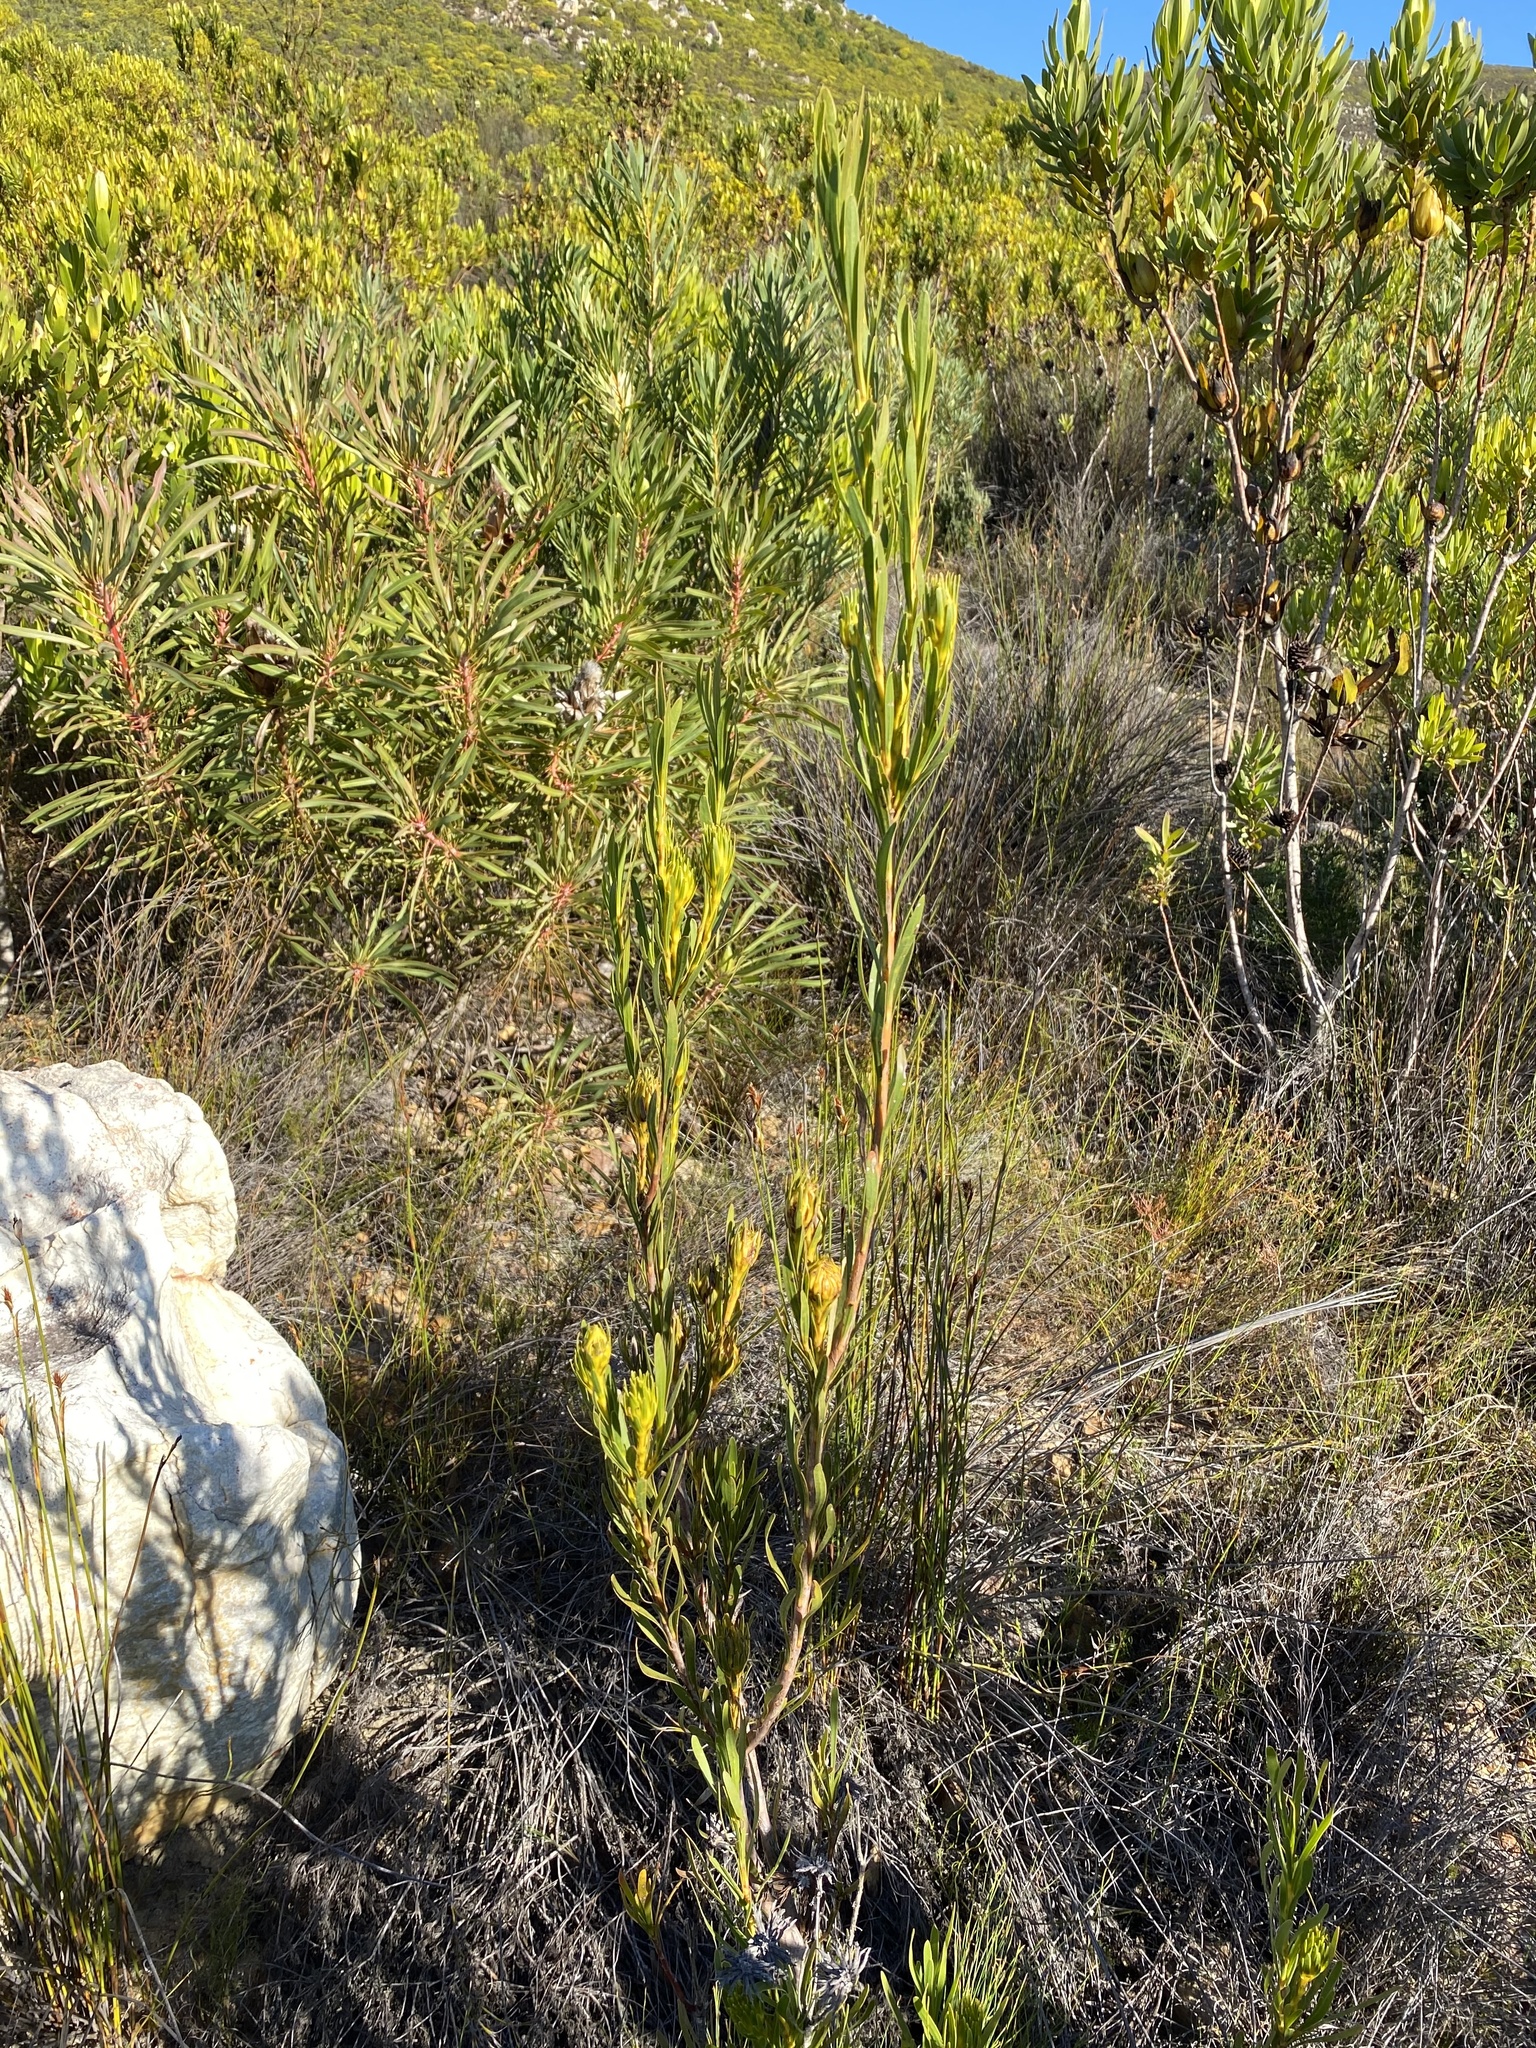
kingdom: Plantae
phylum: Tracheophyta
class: Magnoliopsida
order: Proteales
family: Proteaceae
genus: Aulax
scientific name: Aulax umbellata
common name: Broad-leaf featherbush
